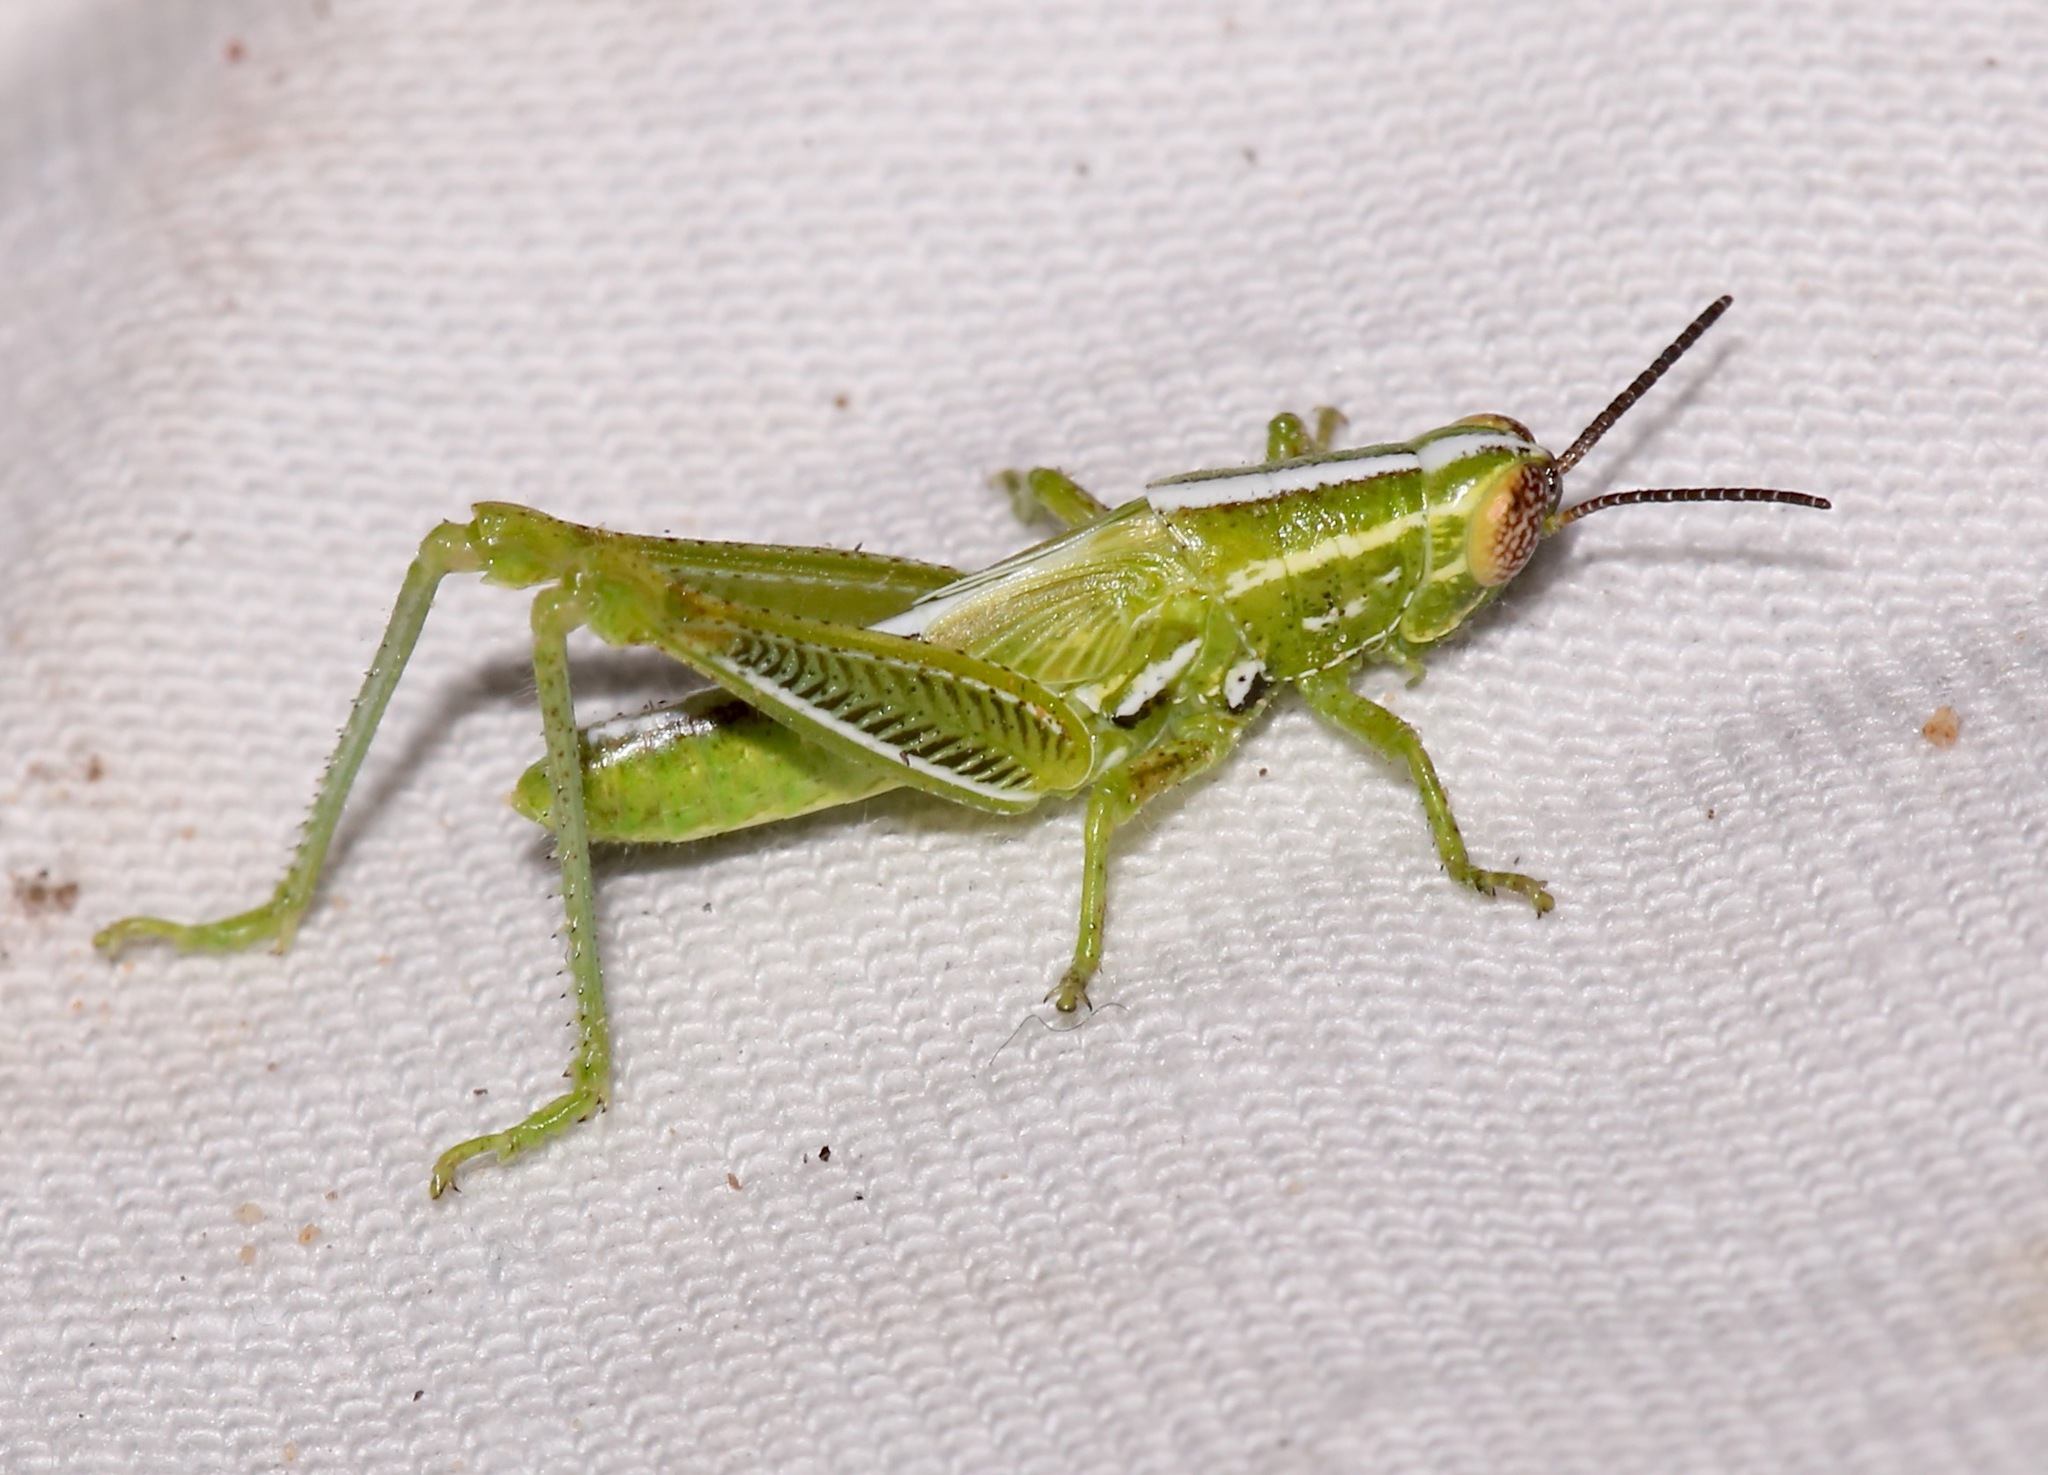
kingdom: Animalia
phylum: Arthropoda
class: Insecta
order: Orthoptera
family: Acrididae
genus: Hesperotettix
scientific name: Hesperotettix viridis
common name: Meadow purple-striped grasshopper
